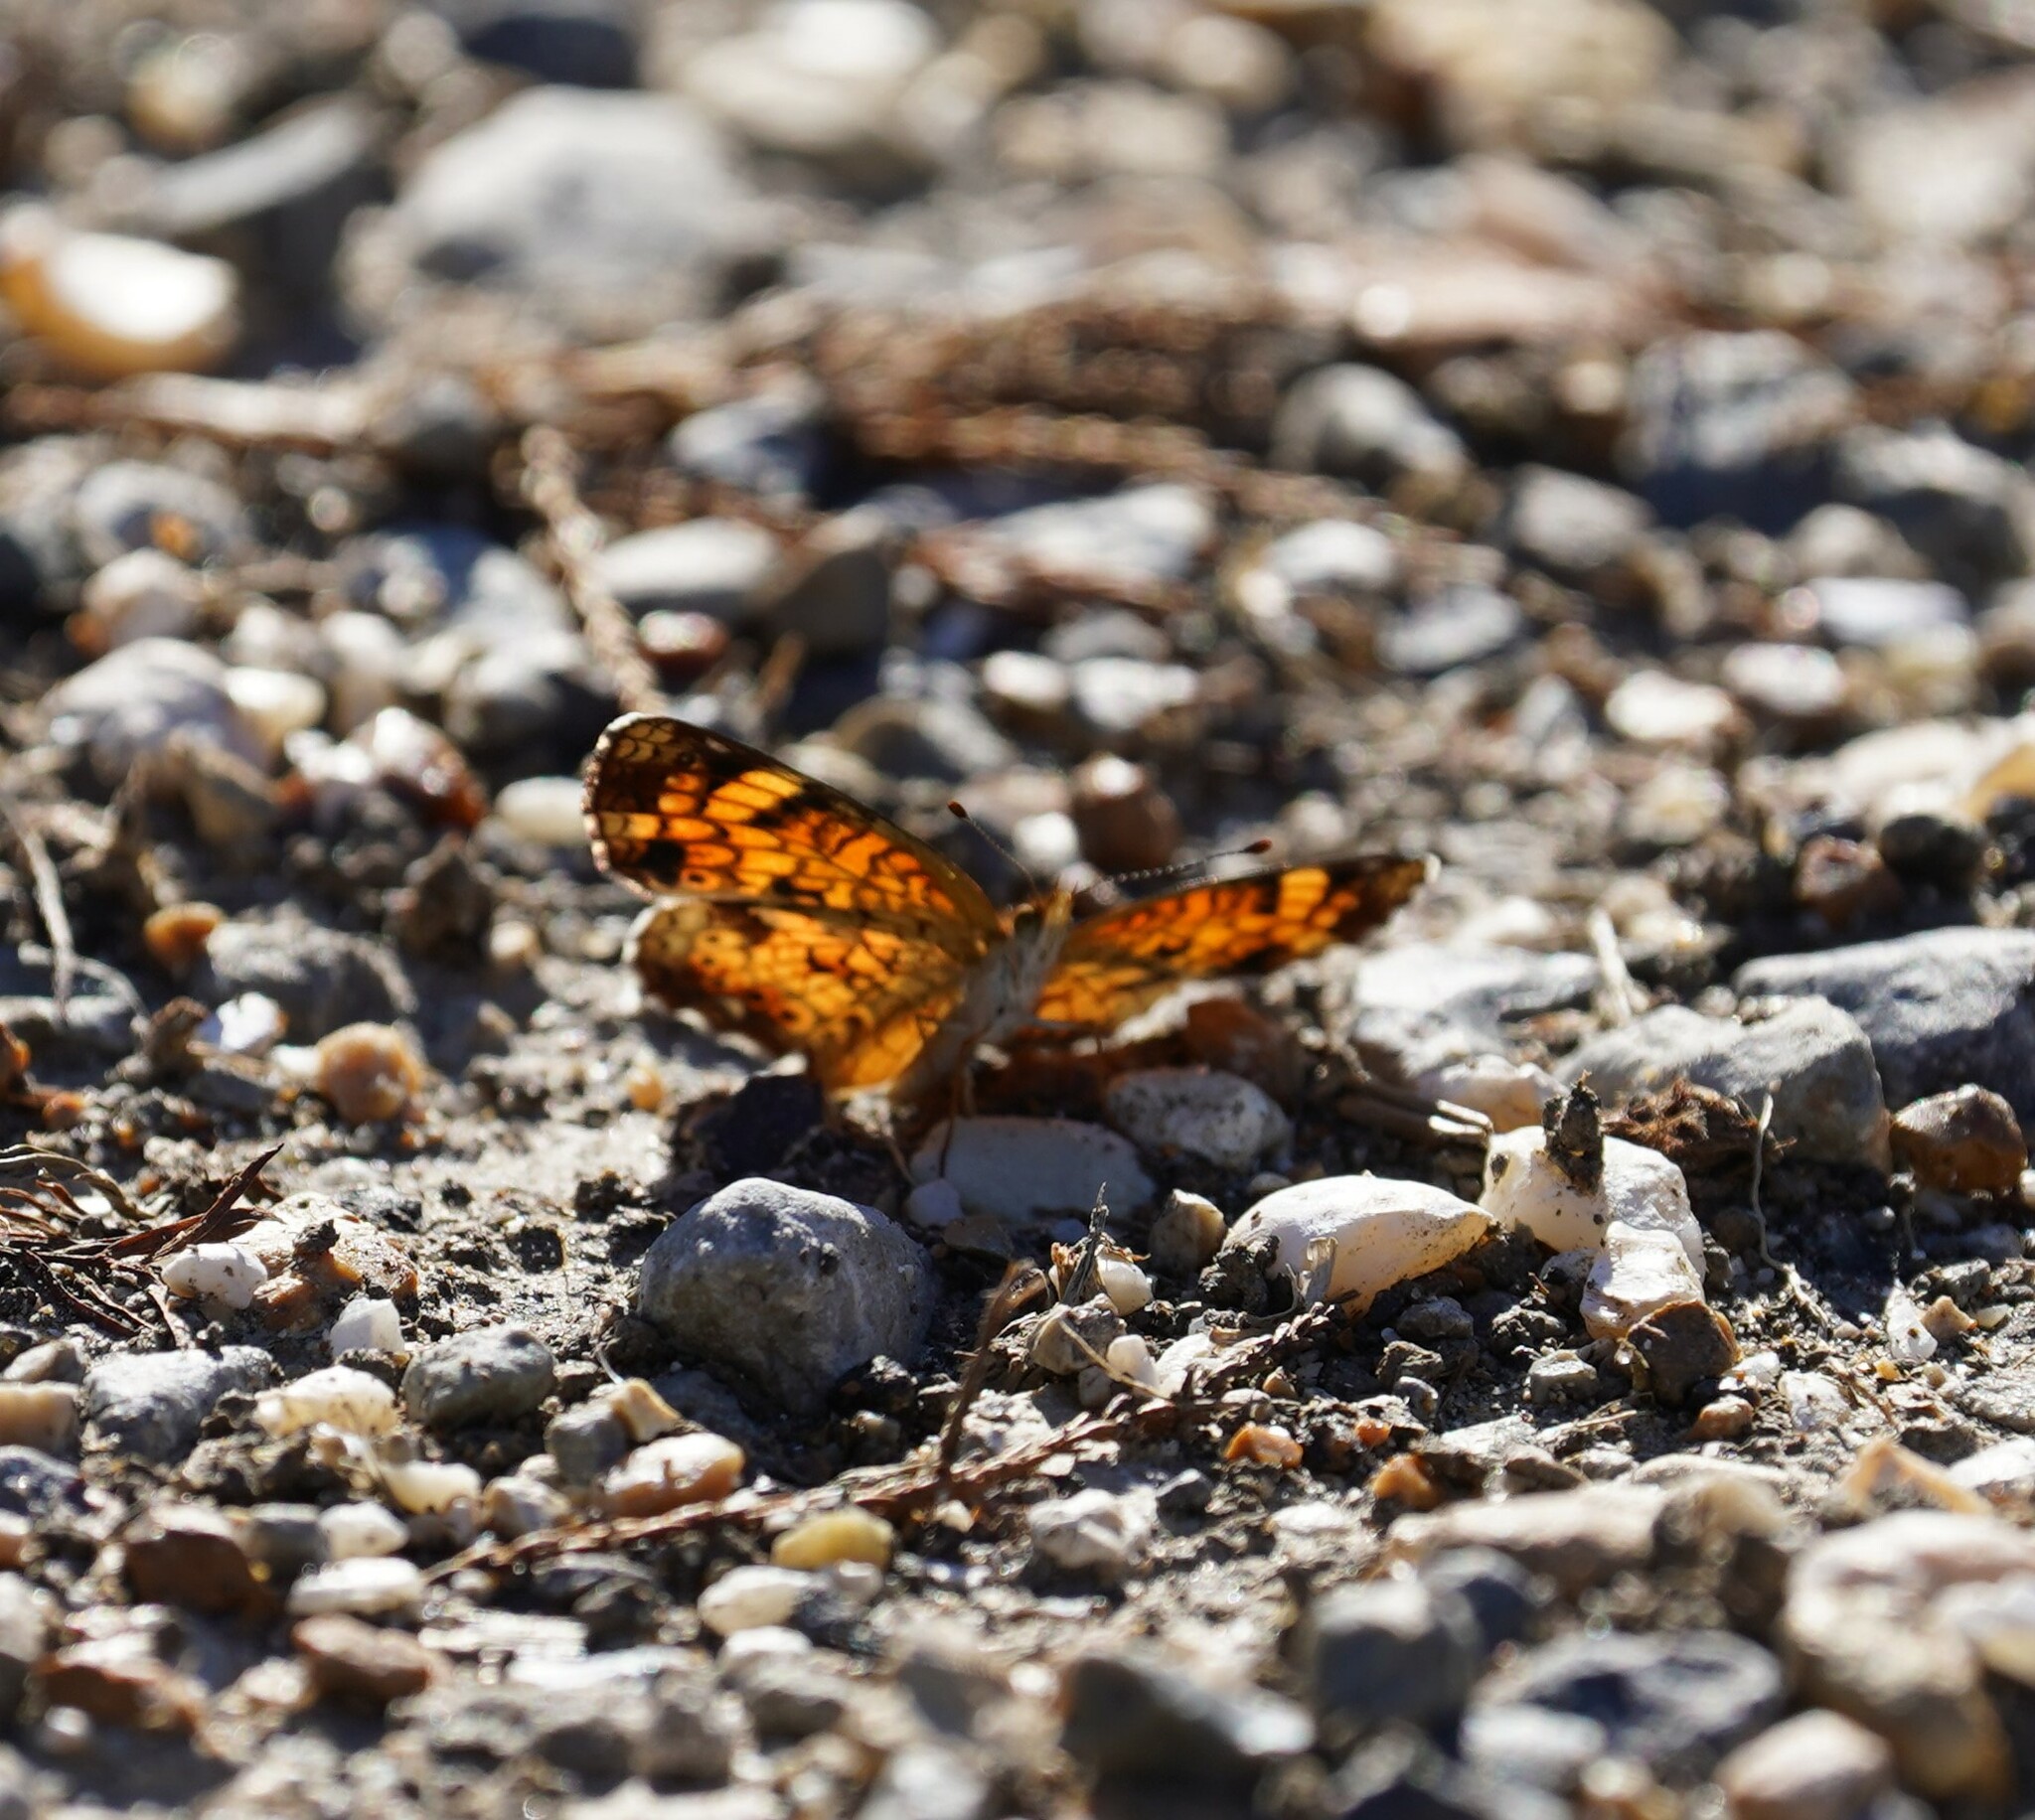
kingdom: Animalia
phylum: Arthropoda
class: Insecta
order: Lepidoptera
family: Nymphalidae
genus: Phyciodes
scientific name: Phyciodes tharos
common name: Pearl crescent
